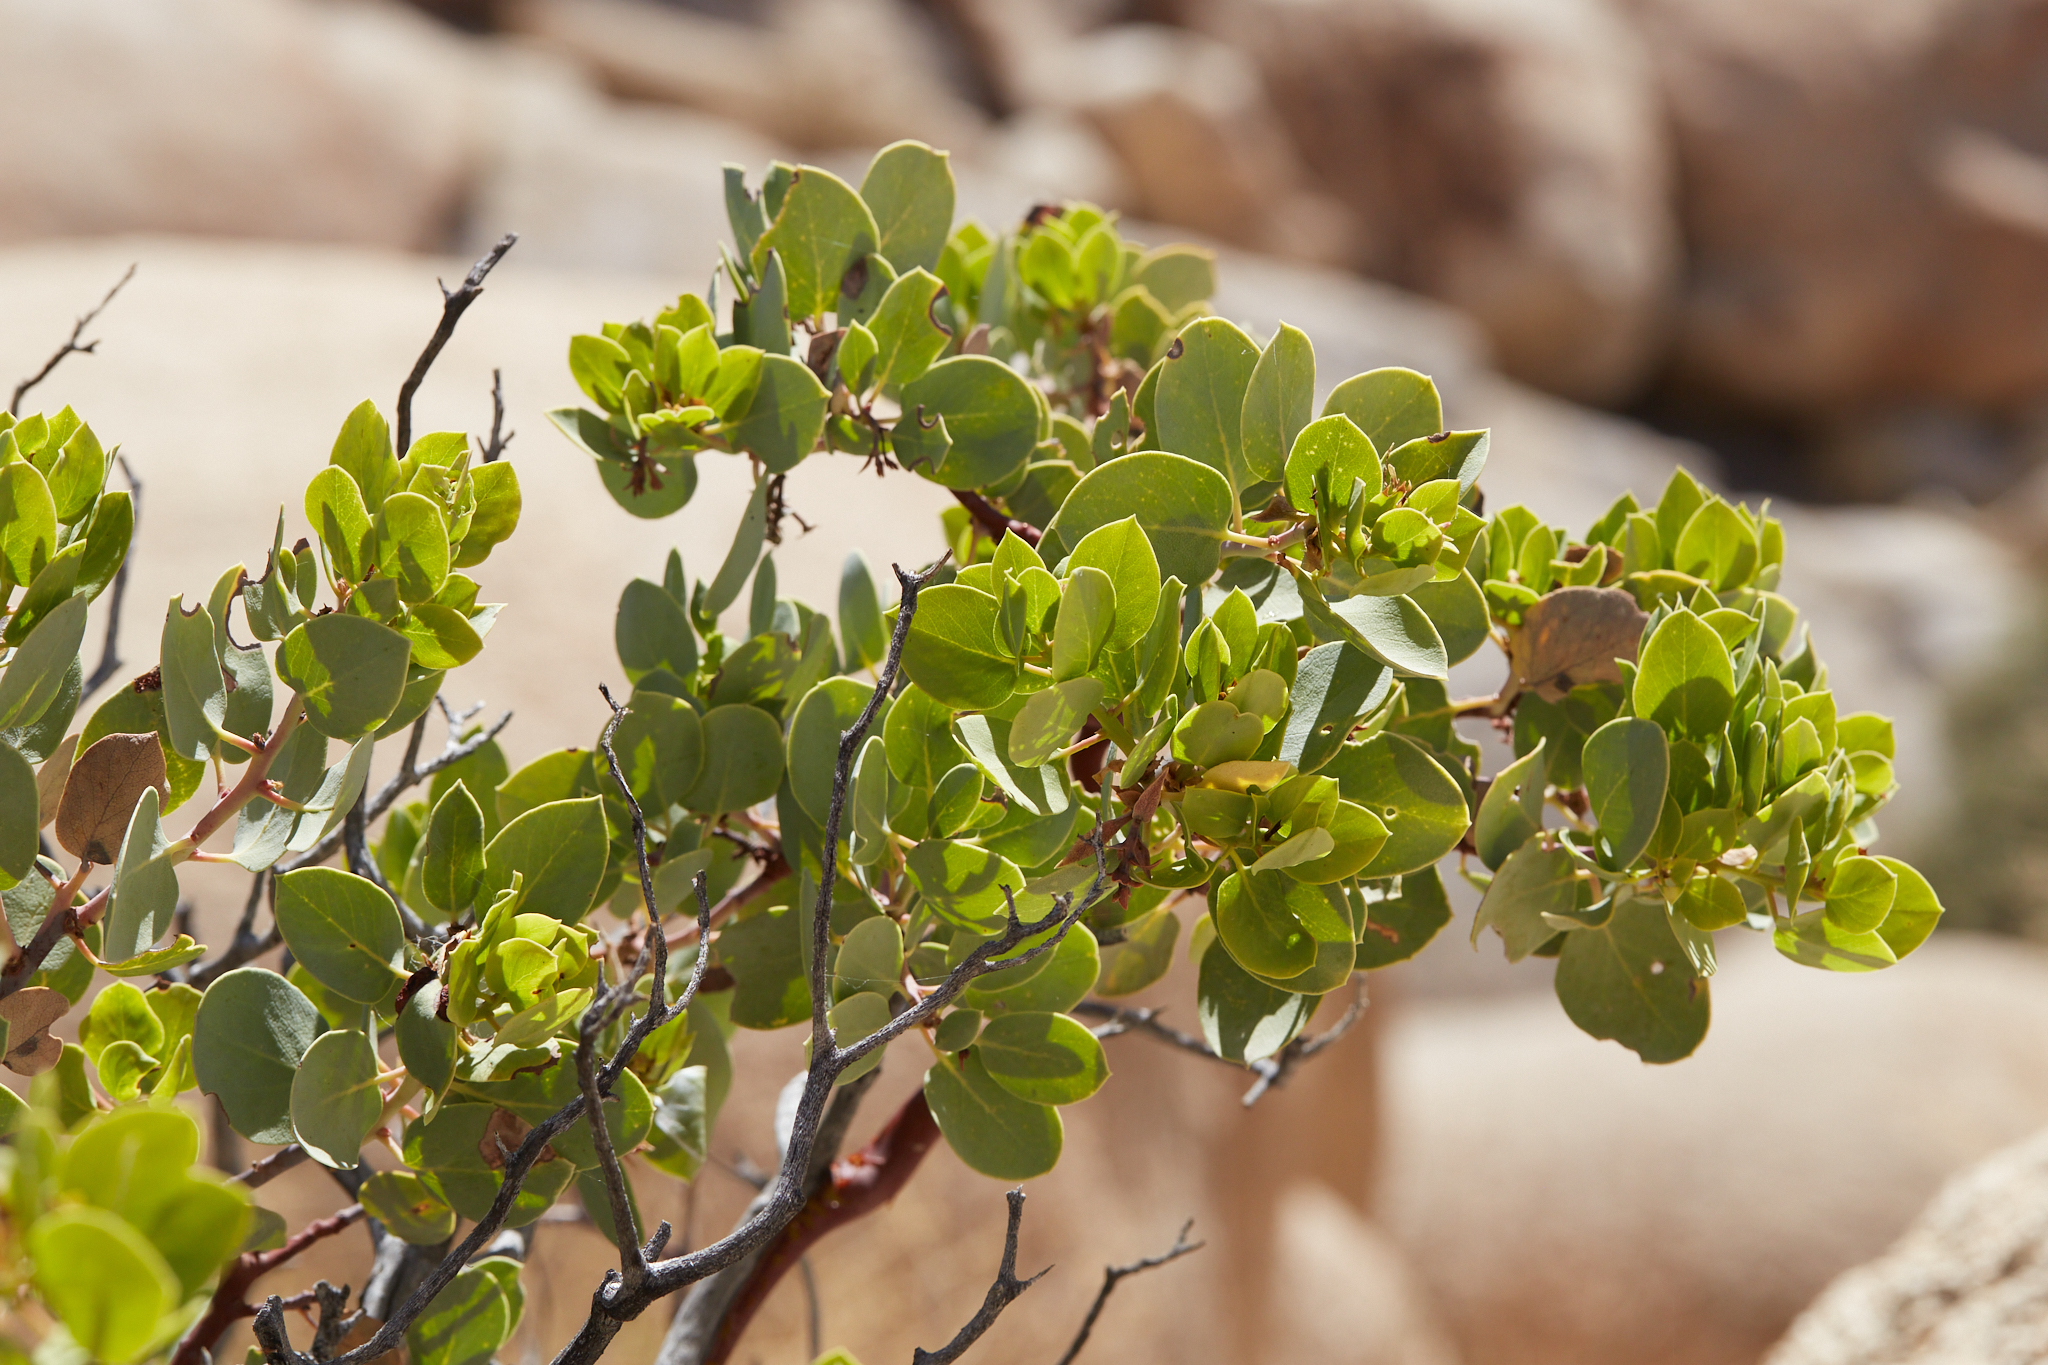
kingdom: Plantae
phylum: Tracheophyta
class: Magnoliopsida
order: Ericales
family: Ericaceae
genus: Arctostaphylos
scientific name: Arctostaphylos glauca
